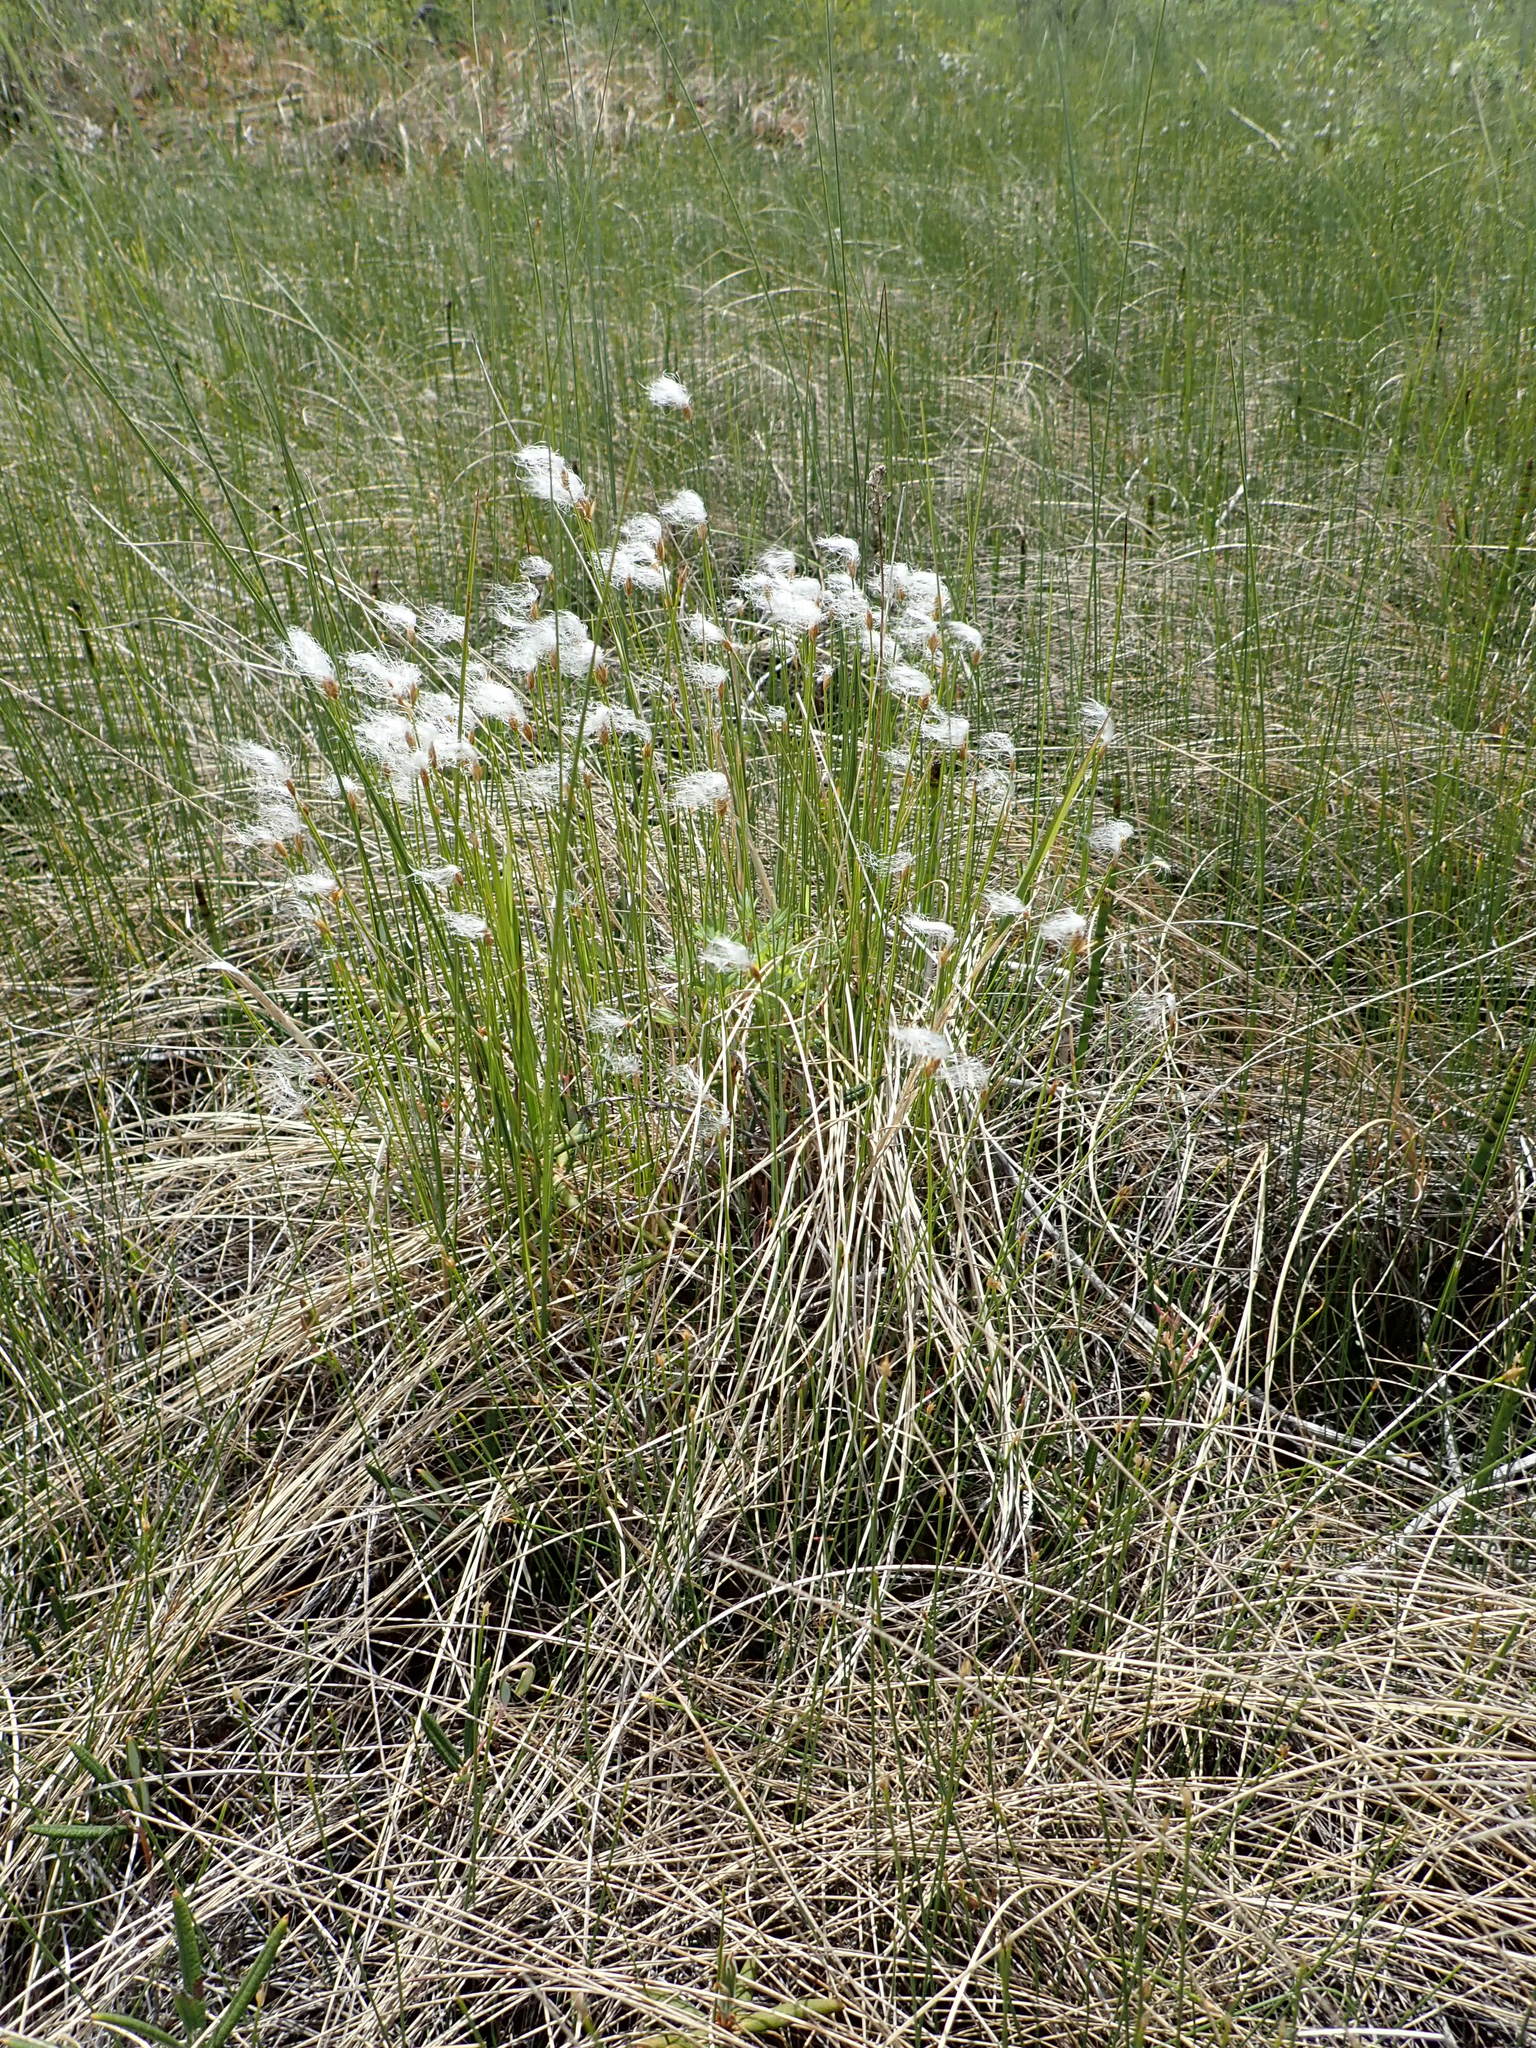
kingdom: Plantae
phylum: Tracheophyta
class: Liliopsida
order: Poales
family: Cyperaceae
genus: Trichophorum
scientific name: Trichophorum alpinum
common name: Alpine bulrush
